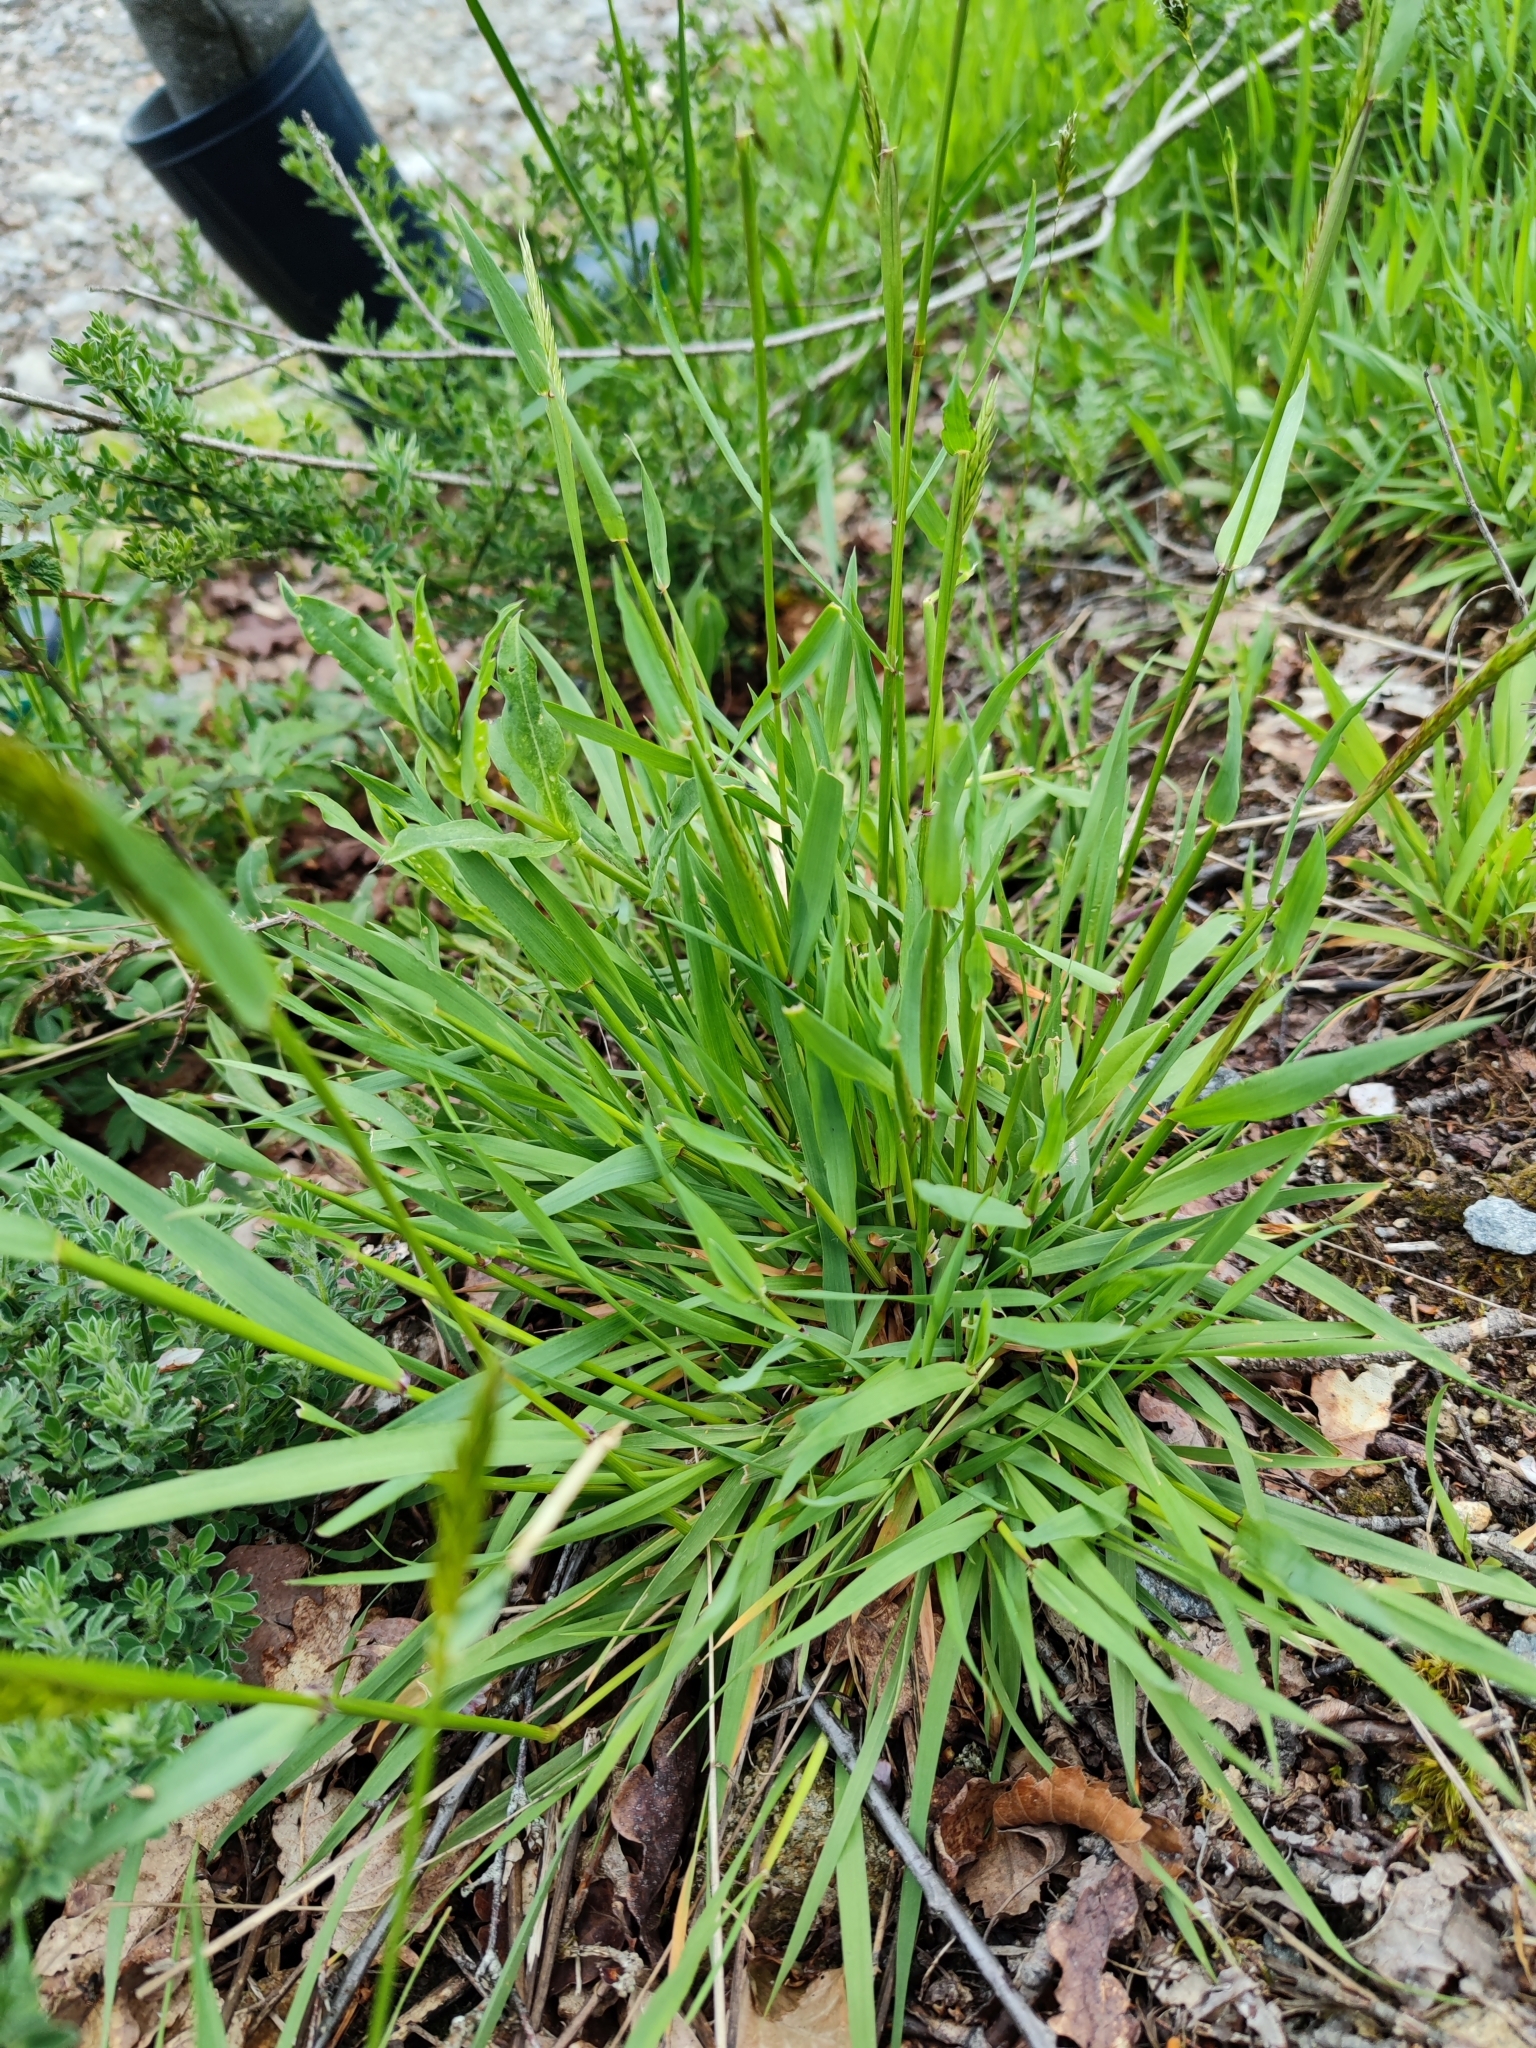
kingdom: Plantae
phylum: Tracheophyta
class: Liliopsida
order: Poales
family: Poaceae
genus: Anthoxanthum
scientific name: Anthoxanthum odoratum
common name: Sweet vernalgrass
